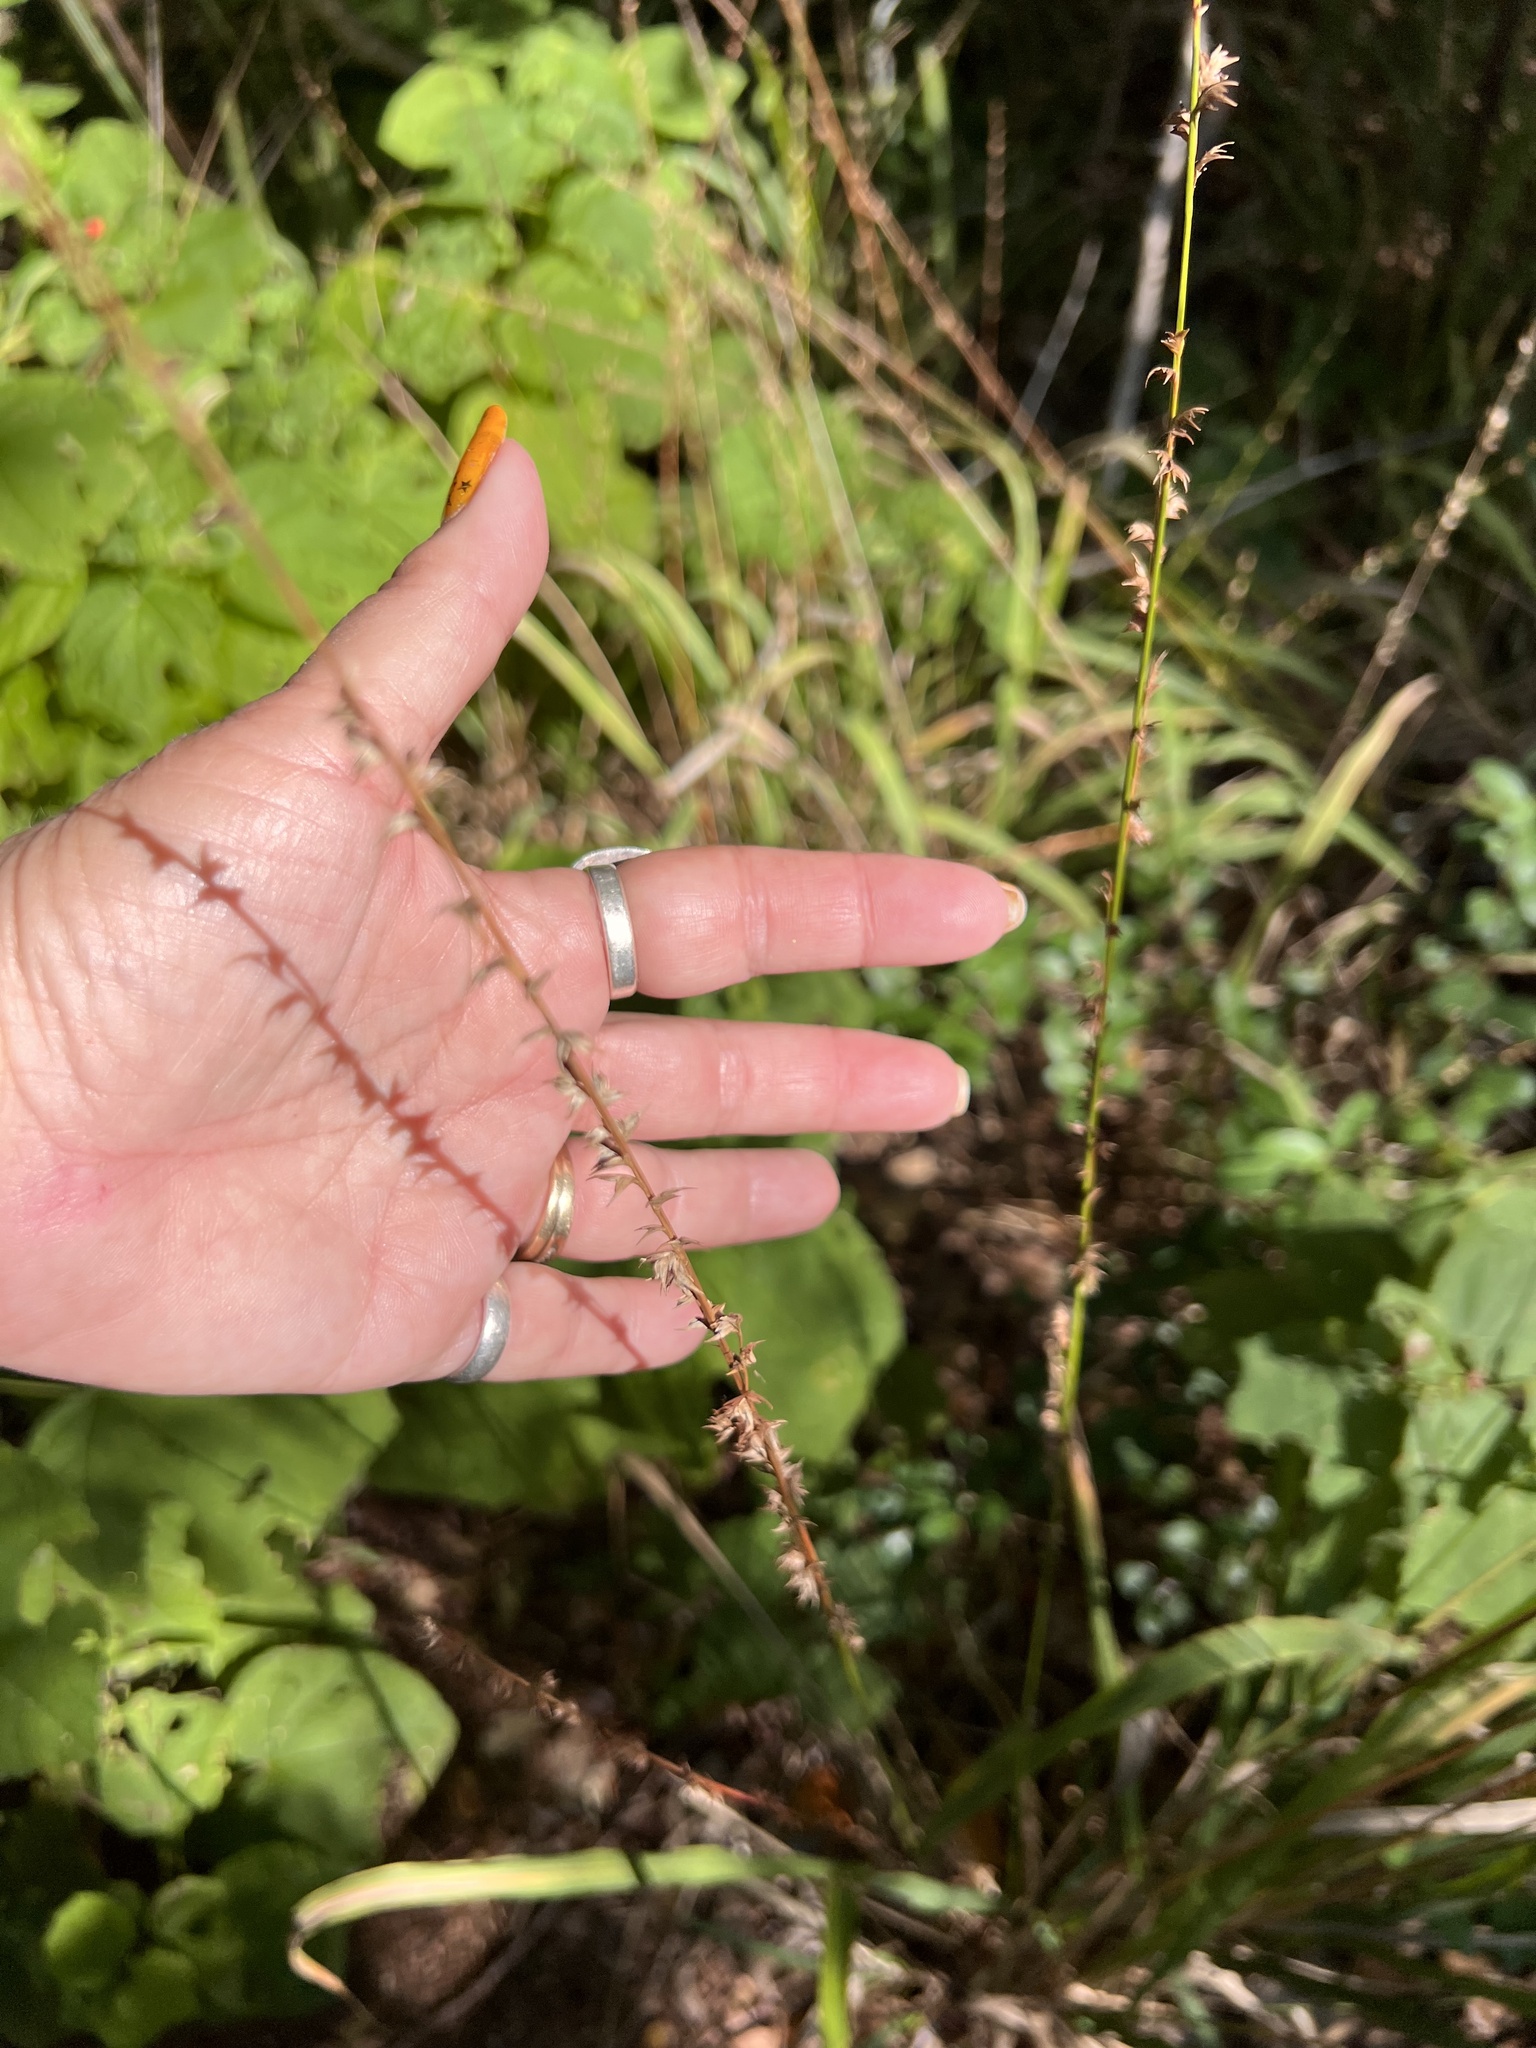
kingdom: Plantae
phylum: Tracheophyta
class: Liliopsida
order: Poales
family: Poaceae
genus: Chasmanthium
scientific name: Chasmanthium laxum
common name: Slender chasmanthium
